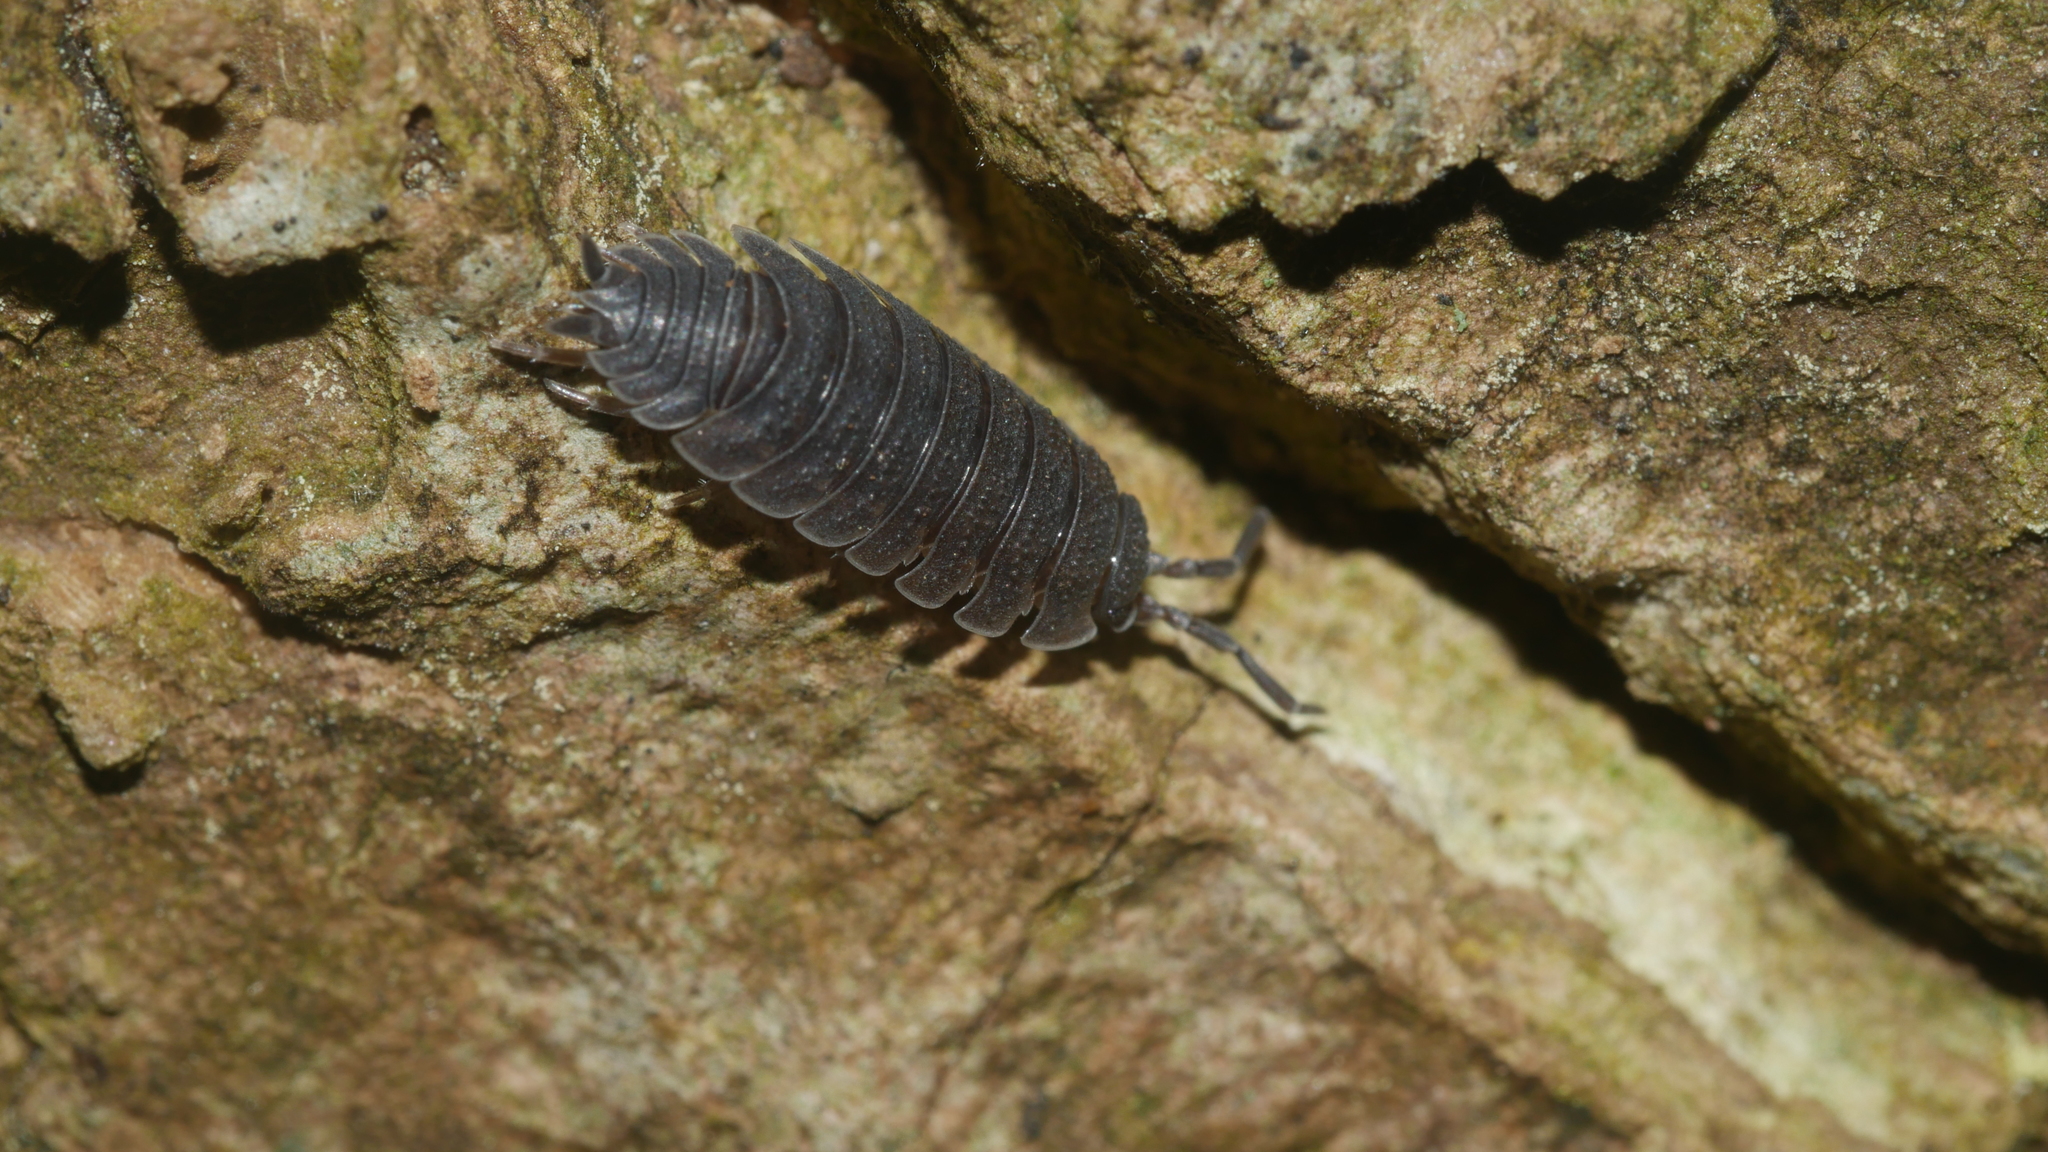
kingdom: Animalia
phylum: Arthropoda
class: Malacostraca
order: Isopoda
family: Porcellionidae
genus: Porcellio
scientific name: Porcellio scaber
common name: Common rough woodlouse
